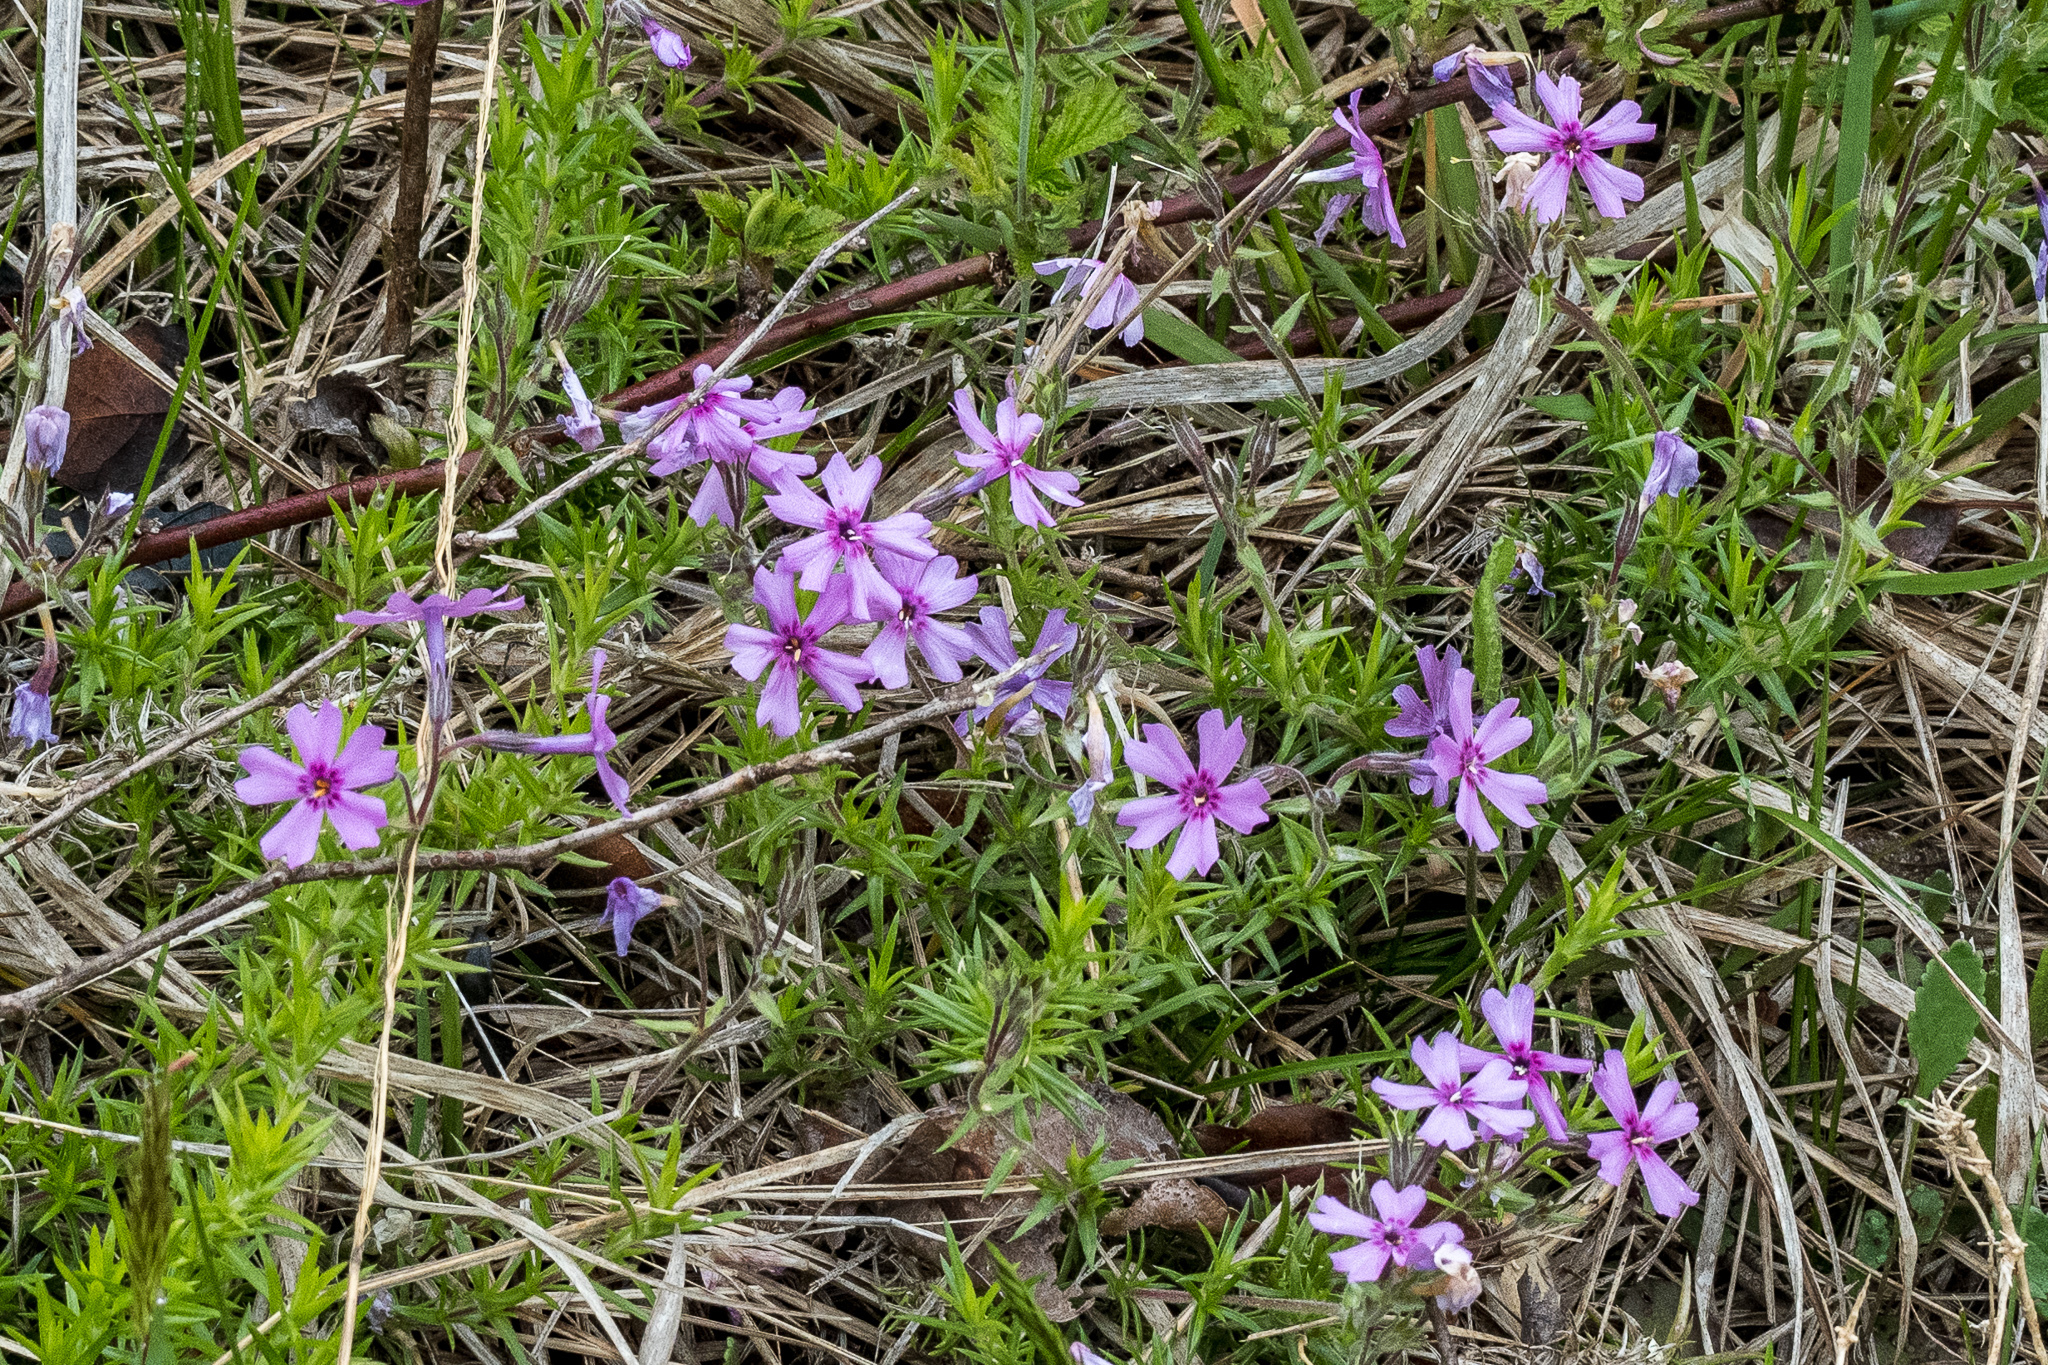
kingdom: Plantae
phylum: Tracheophyta
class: Magnoliopsida
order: Ericales
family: Polemoniaceae
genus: Phlox
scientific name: Phlox subulata
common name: Moss phlox
